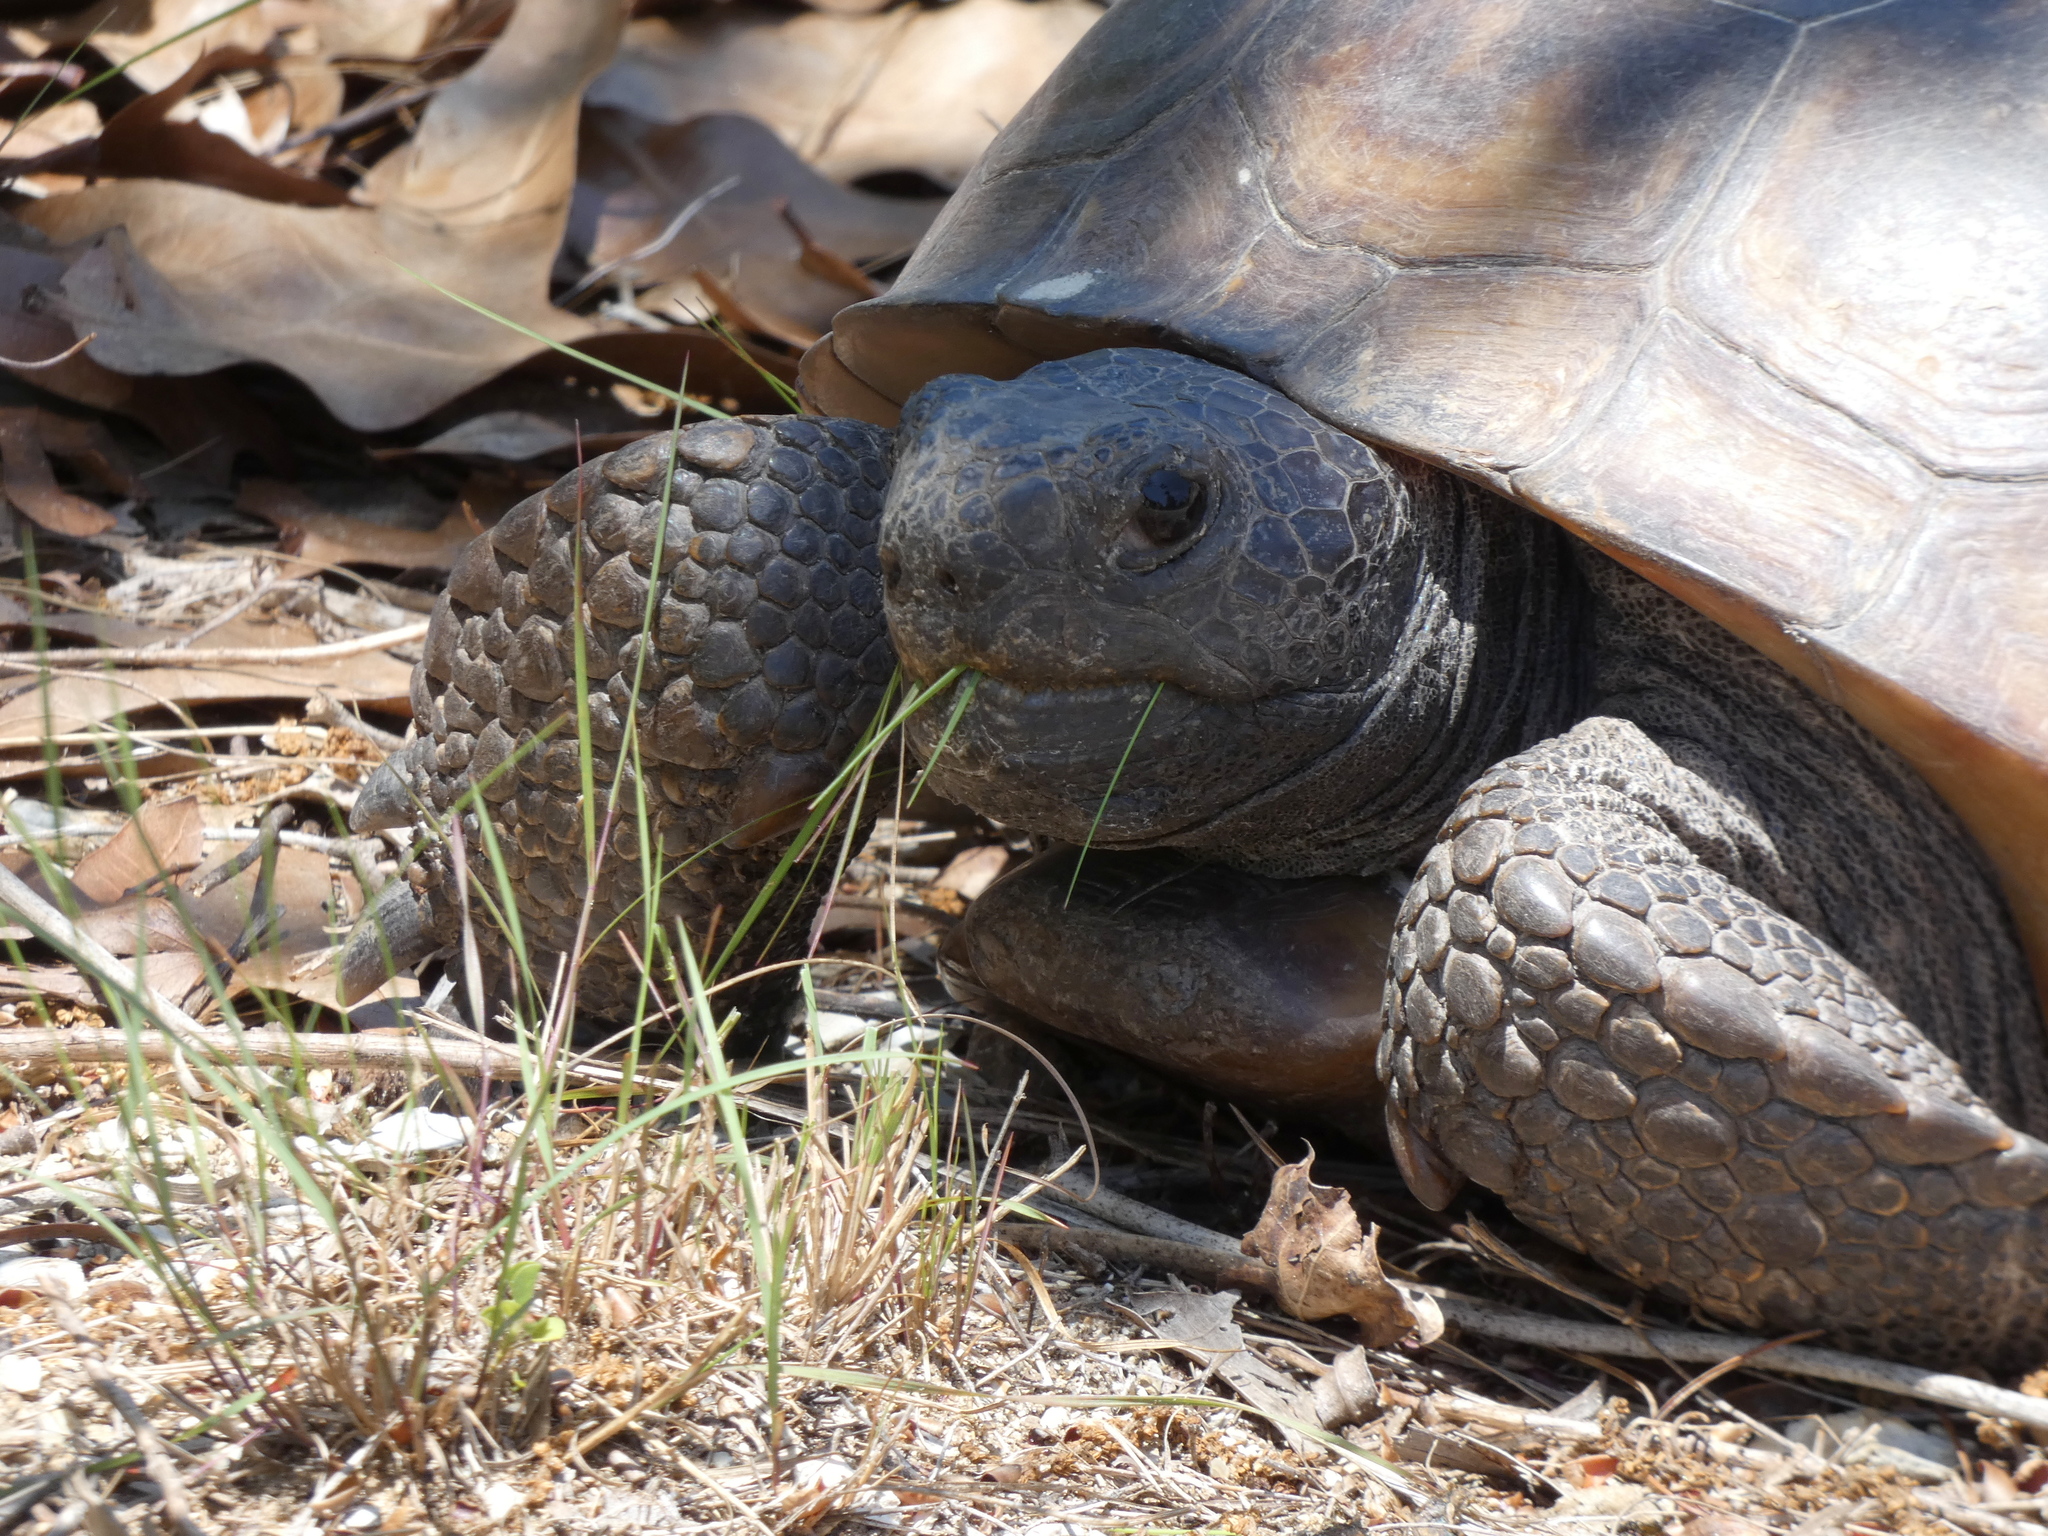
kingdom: Animalia
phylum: Chordata
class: Testudines
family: Testudinidae
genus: Gopherus
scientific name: Gopherus polyphemus
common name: Florida gopher tortoise
